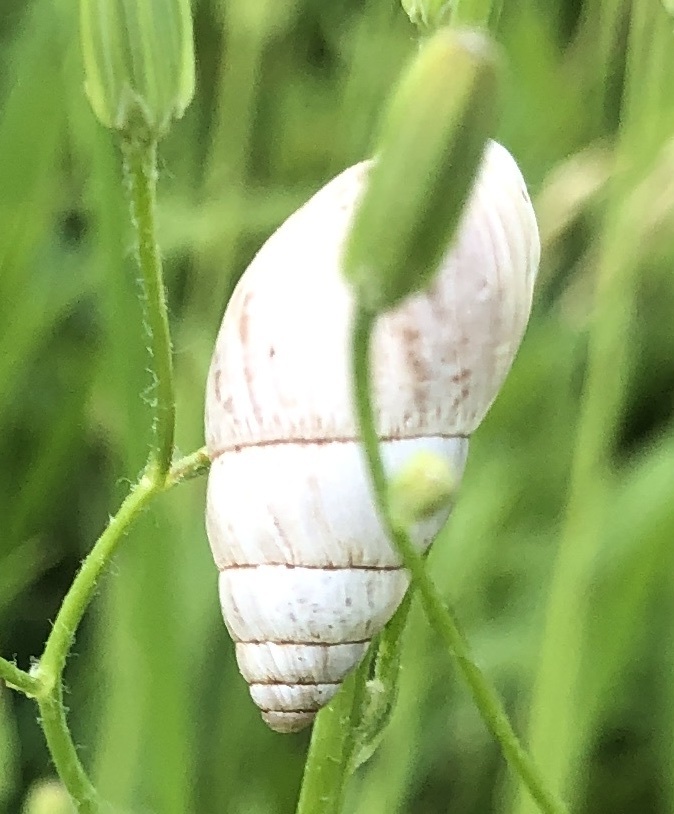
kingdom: Animalia
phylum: Mollusca
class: Gastropoda
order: Stylommatophora
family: Enidae
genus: Zebrina
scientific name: Zebrina detrita
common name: Large bulin
